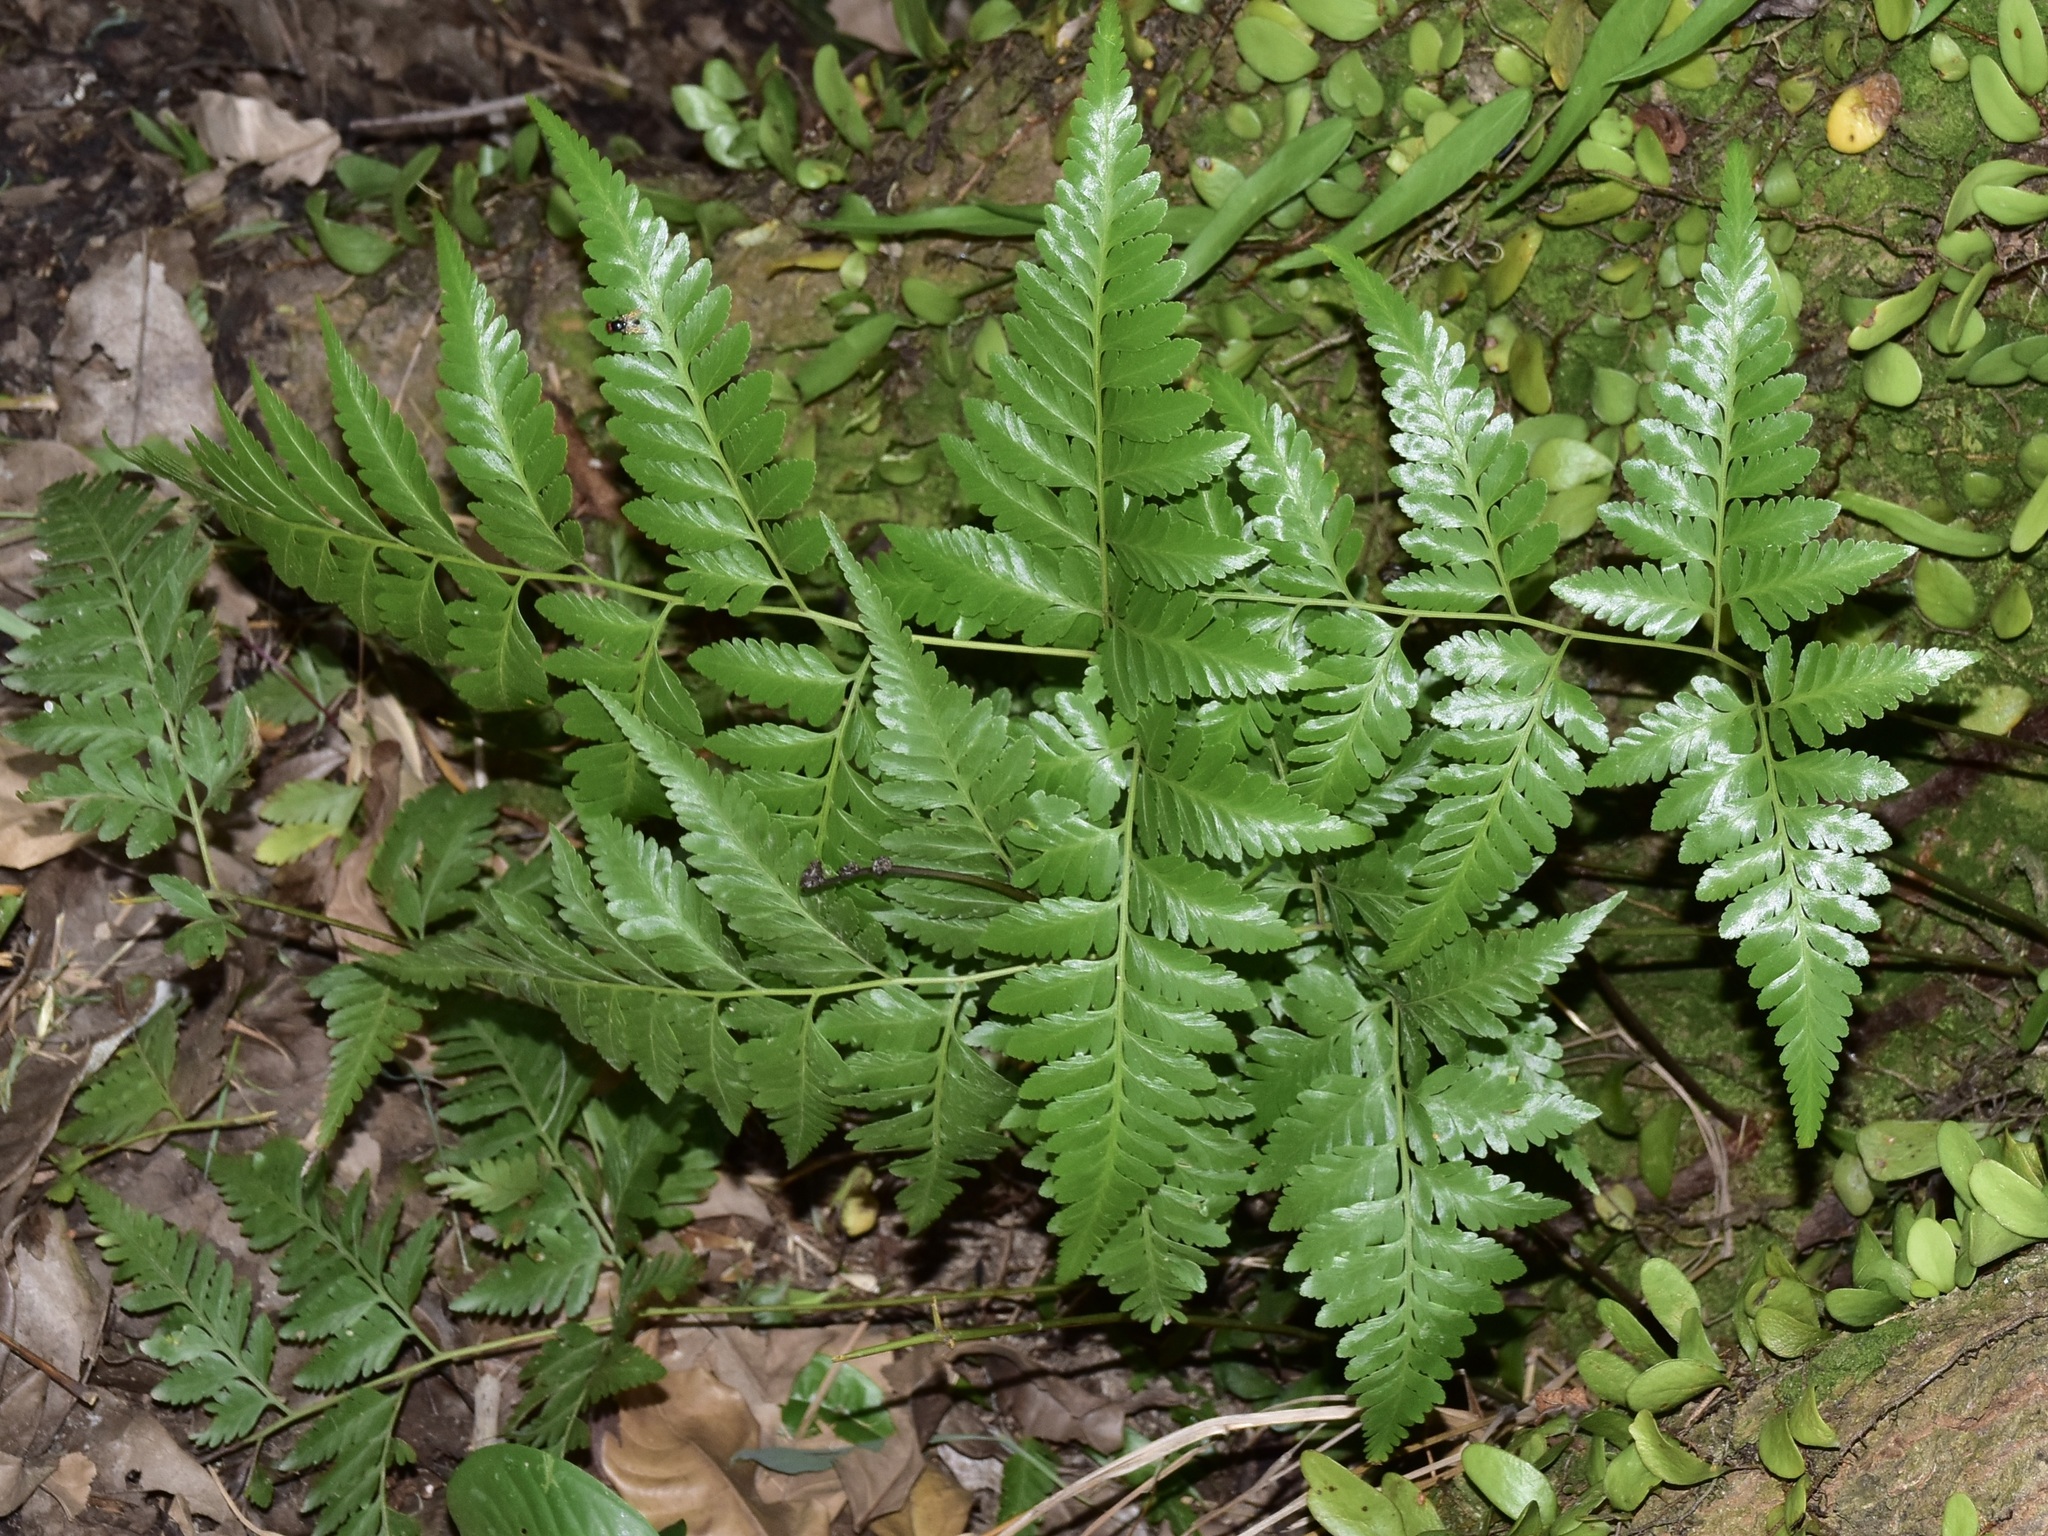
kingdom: Plantae
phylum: Tracheophyta
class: Polypodiopsida
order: Polypodiales
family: Davalliaceae
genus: Davallia
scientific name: Davallia solida
